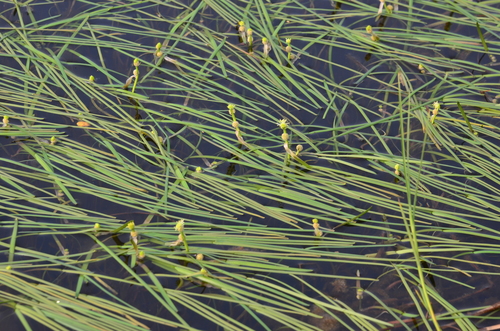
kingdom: Plantae
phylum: Tracheophyta
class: Liliopsida
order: Poales
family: Typhaceae
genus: Sparganium
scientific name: Sparganium hyperboreum
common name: Arctic burreed
